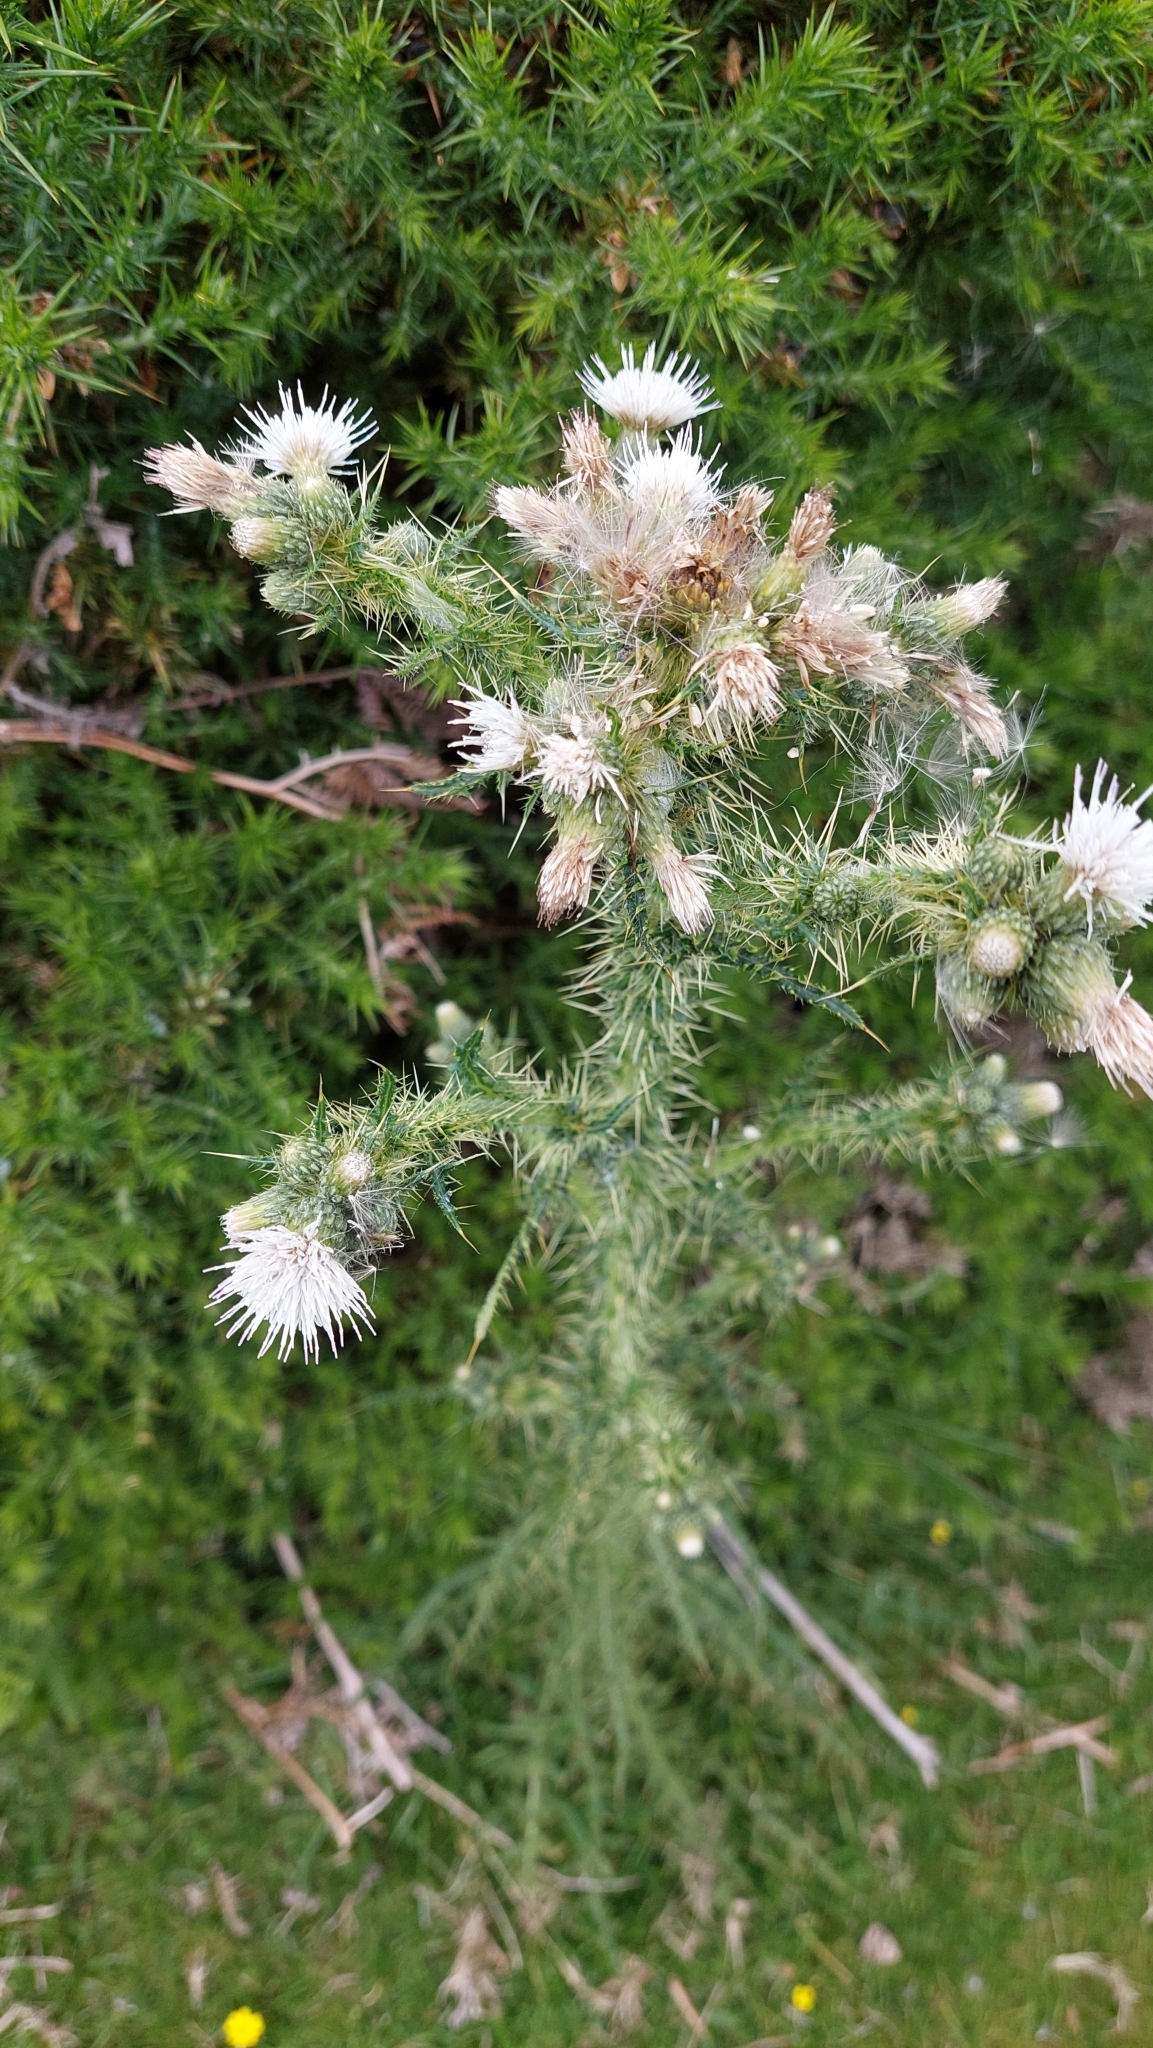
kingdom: Plantae
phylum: Tracheophyta
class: Magnoliopsida
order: Asterales
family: Asteraceae
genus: Cirsium
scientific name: Cirsium palustre
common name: Marsh thistle
